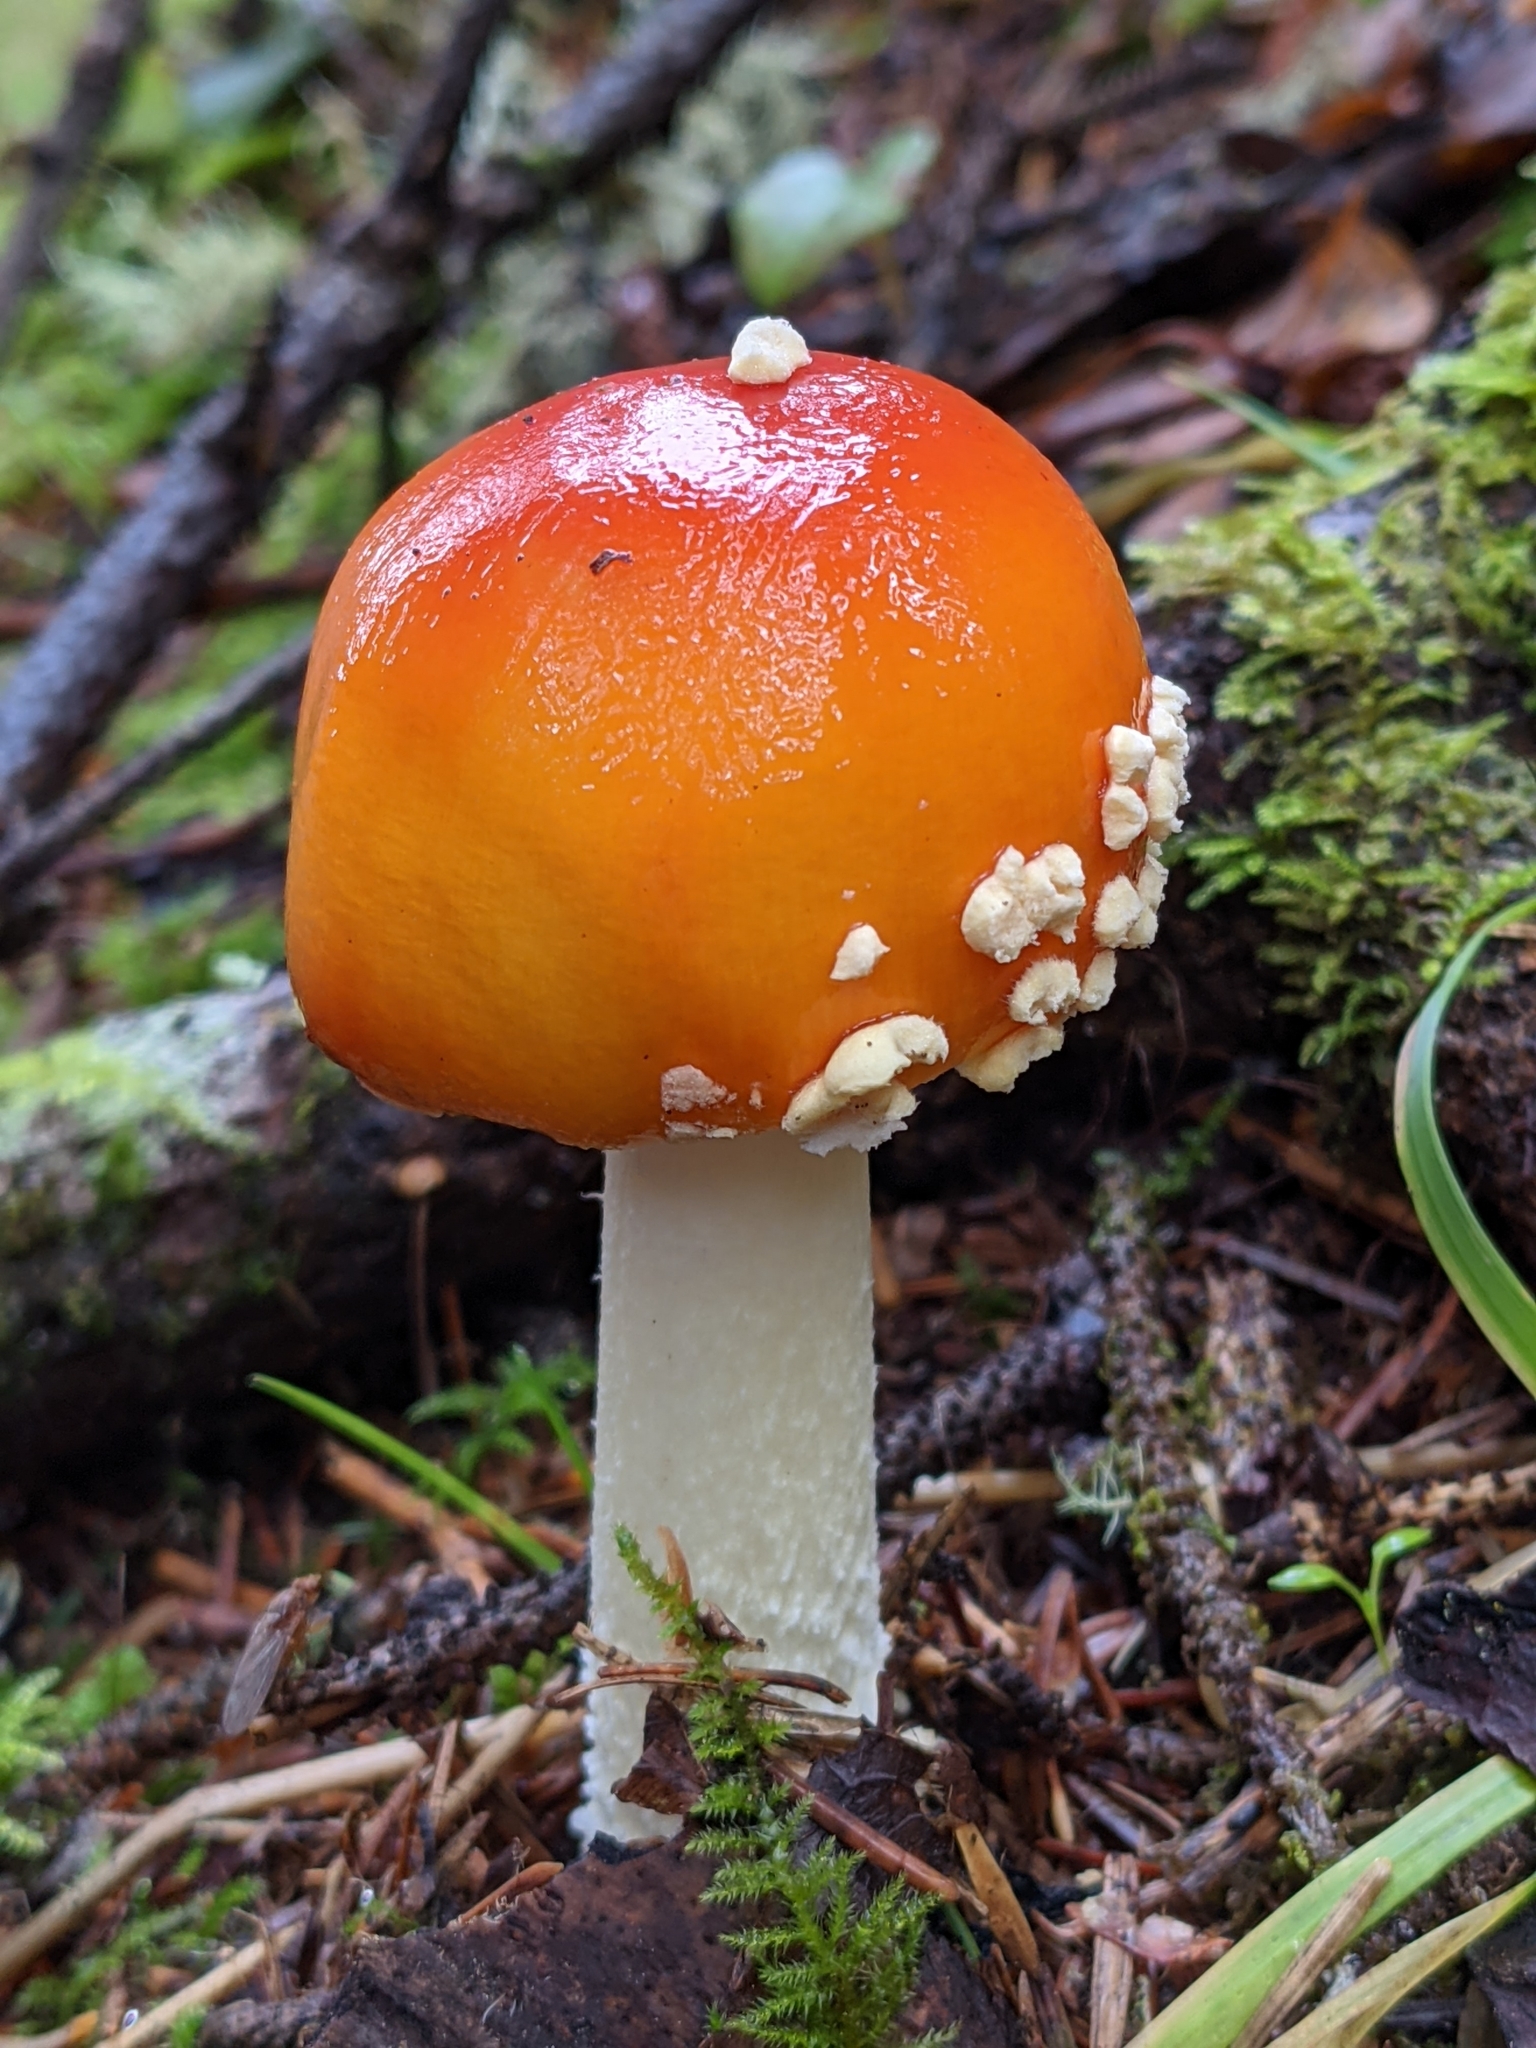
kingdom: Fungi
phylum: Basidiomycota
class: Agaricomycetes
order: Agaricales
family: Amanitaceae
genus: Amanita
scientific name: Amanita muscaria
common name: Fly agaric
